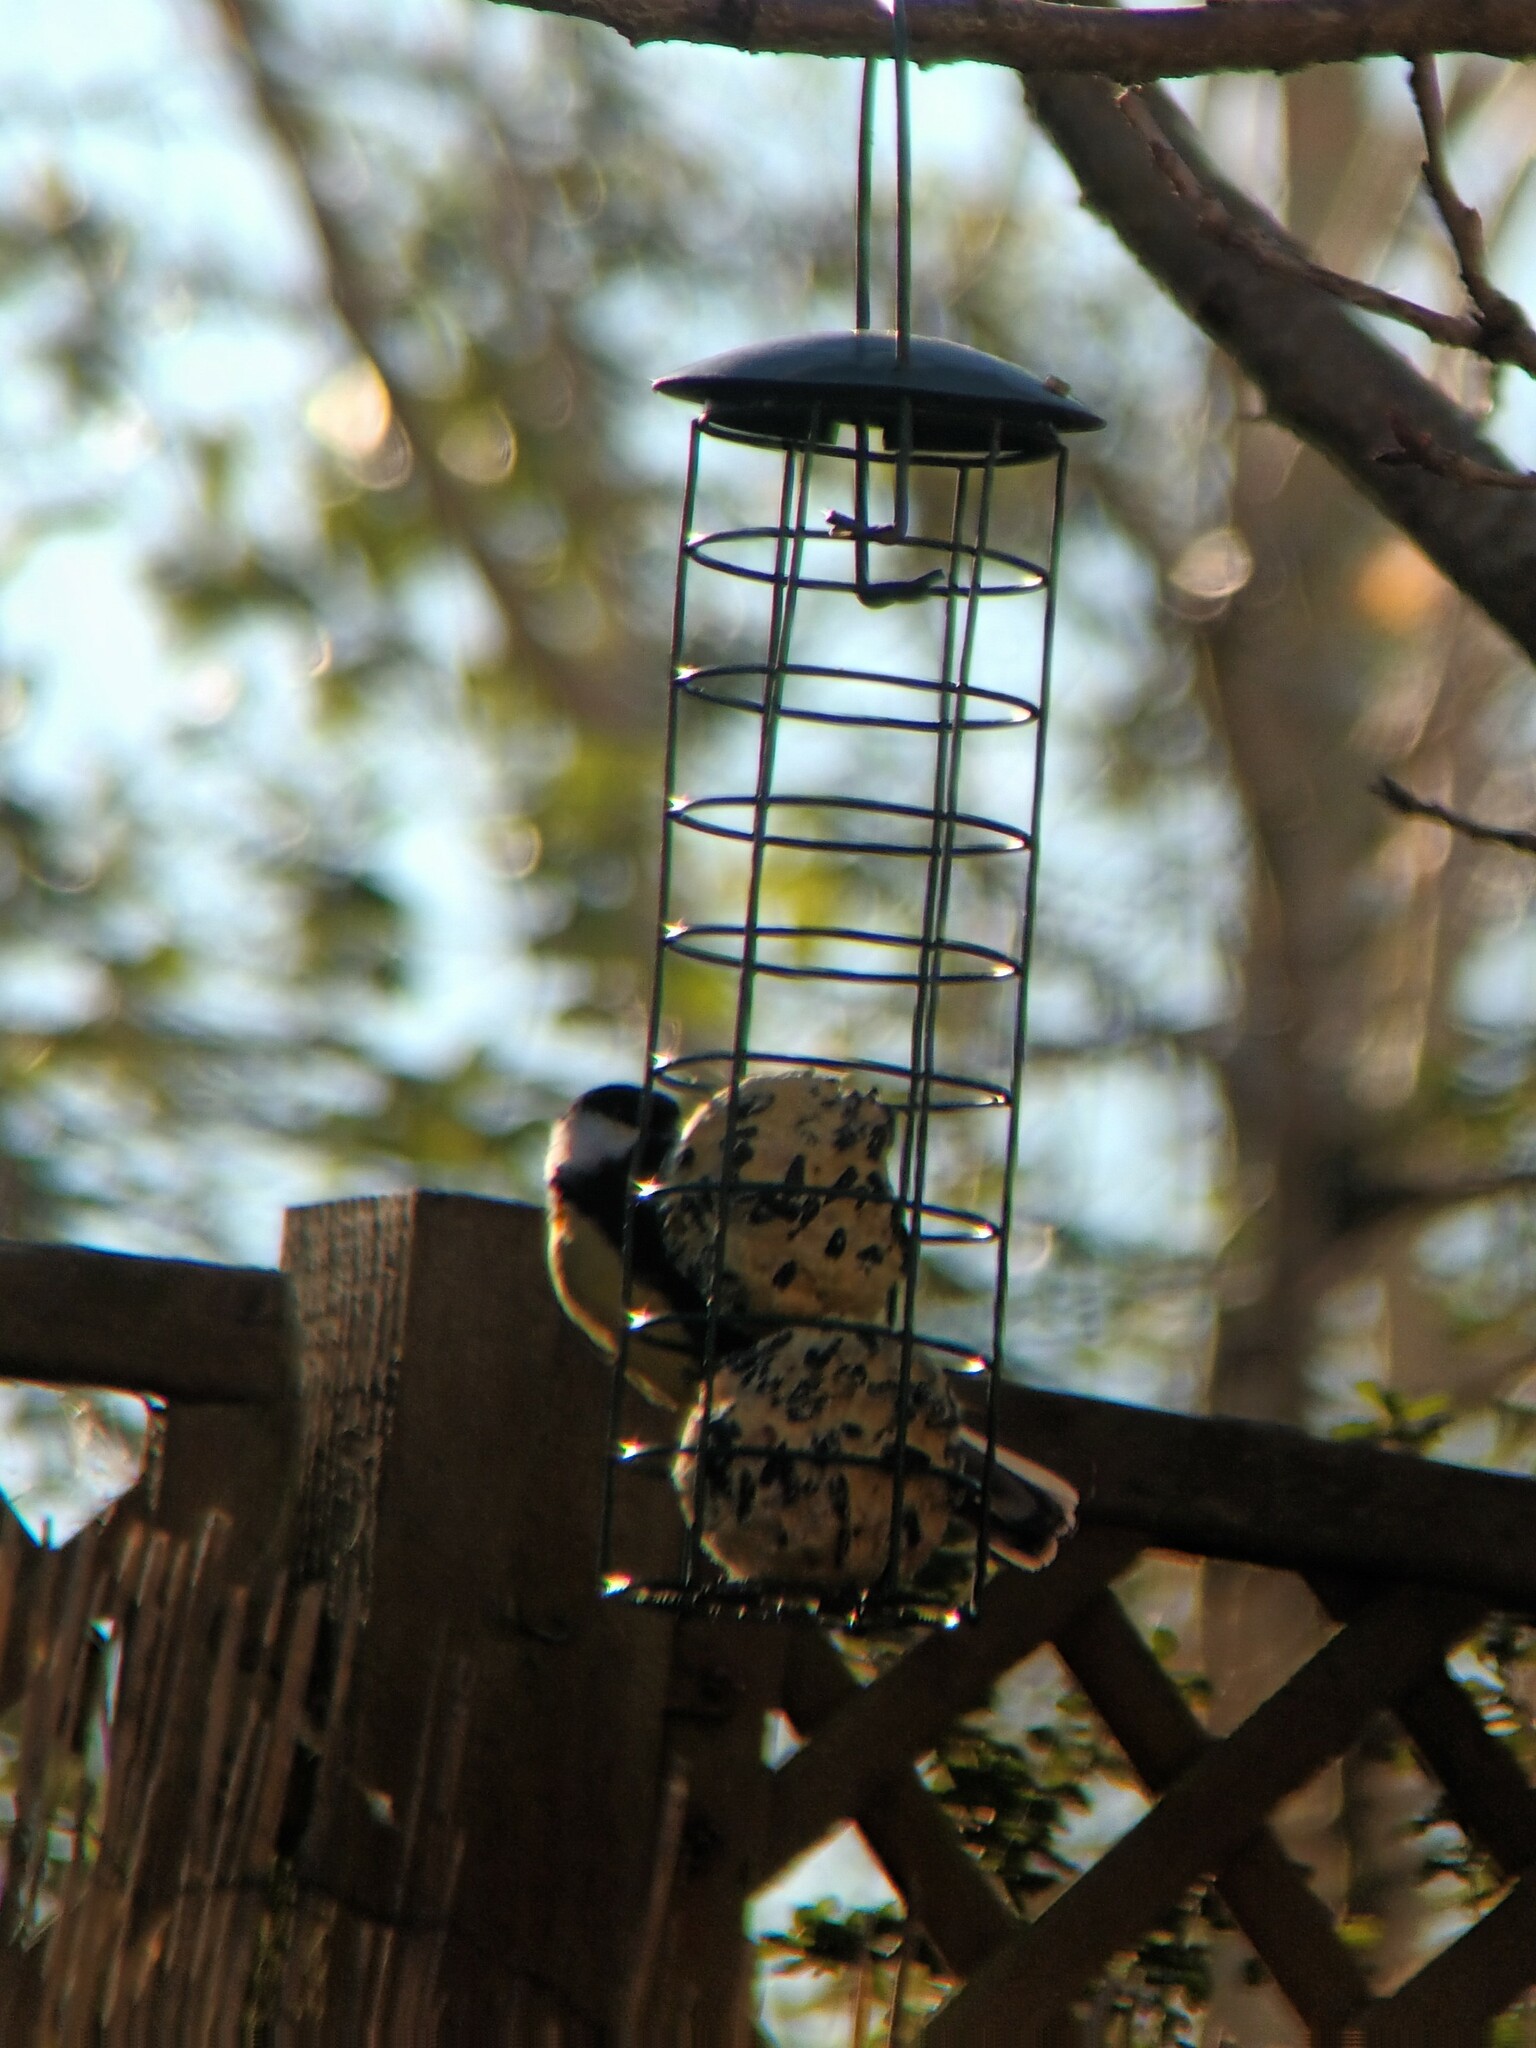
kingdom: Animalia
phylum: Chordata
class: Aves
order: Passeriformes
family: Paridae
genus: Parus
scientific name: Parus major
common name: Great tit
